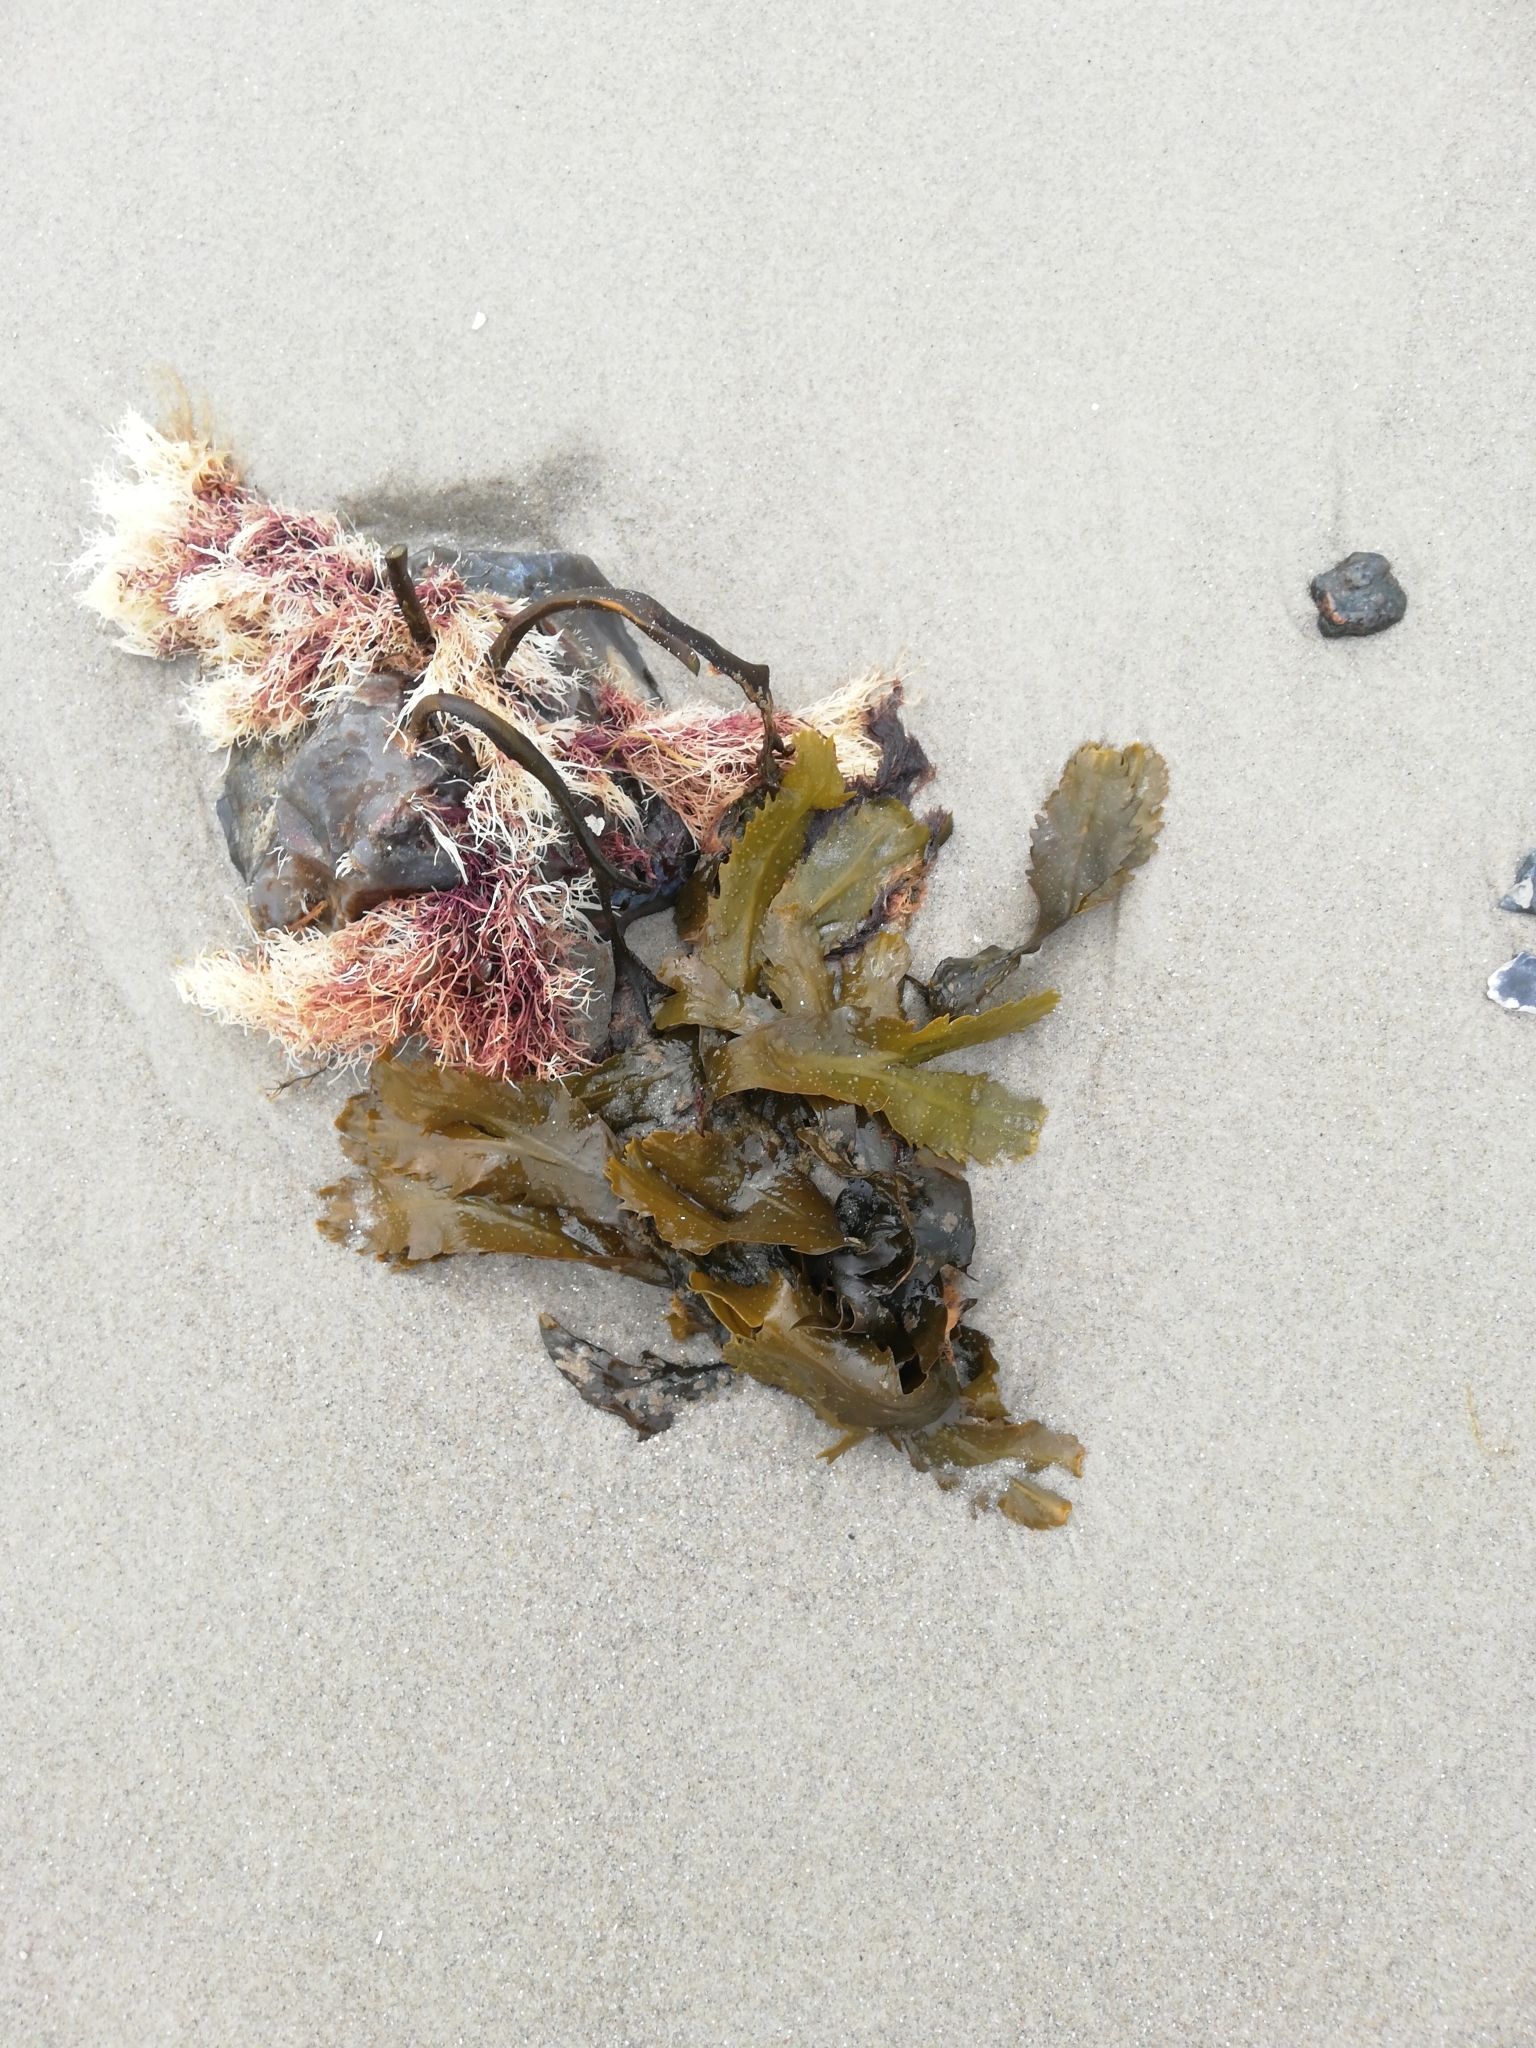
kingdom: Chromista
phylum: Ochrophyta
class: Phaeophyceae
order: Fucales
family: Fucaceae
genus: Fucus
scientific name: Fucus serratus
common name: Toothed wrack
